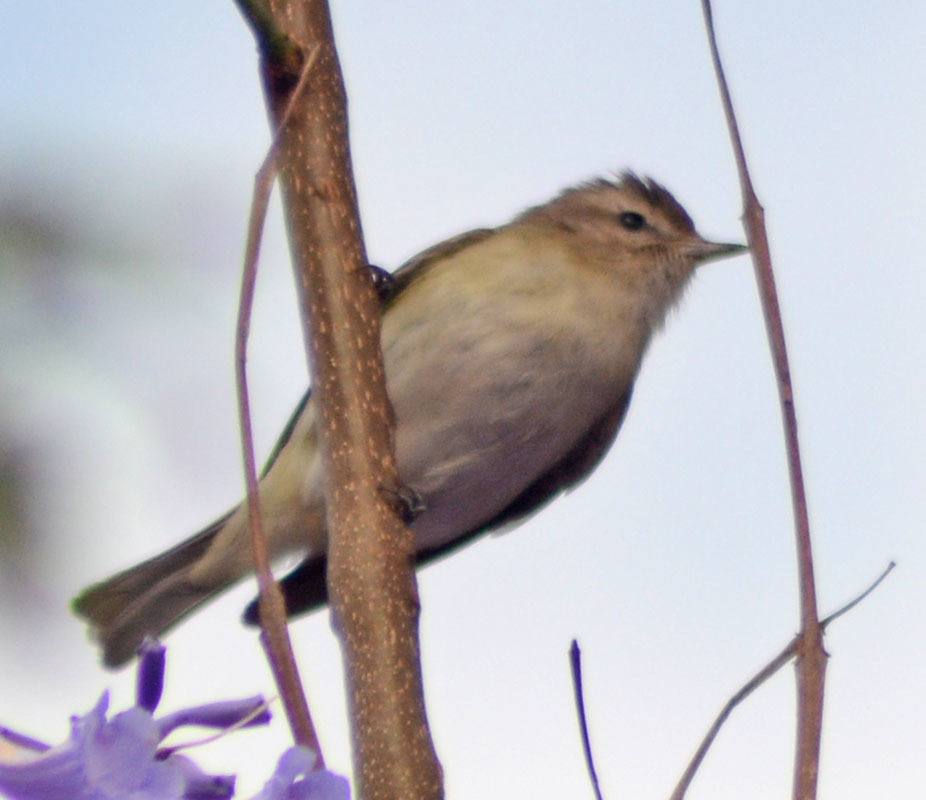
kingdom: Animalia
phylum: Chordata
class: Aves
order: Passeriformes
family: Vireonidae
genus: Vireo
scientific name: Vireo gilvus
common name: Warbling vireo
